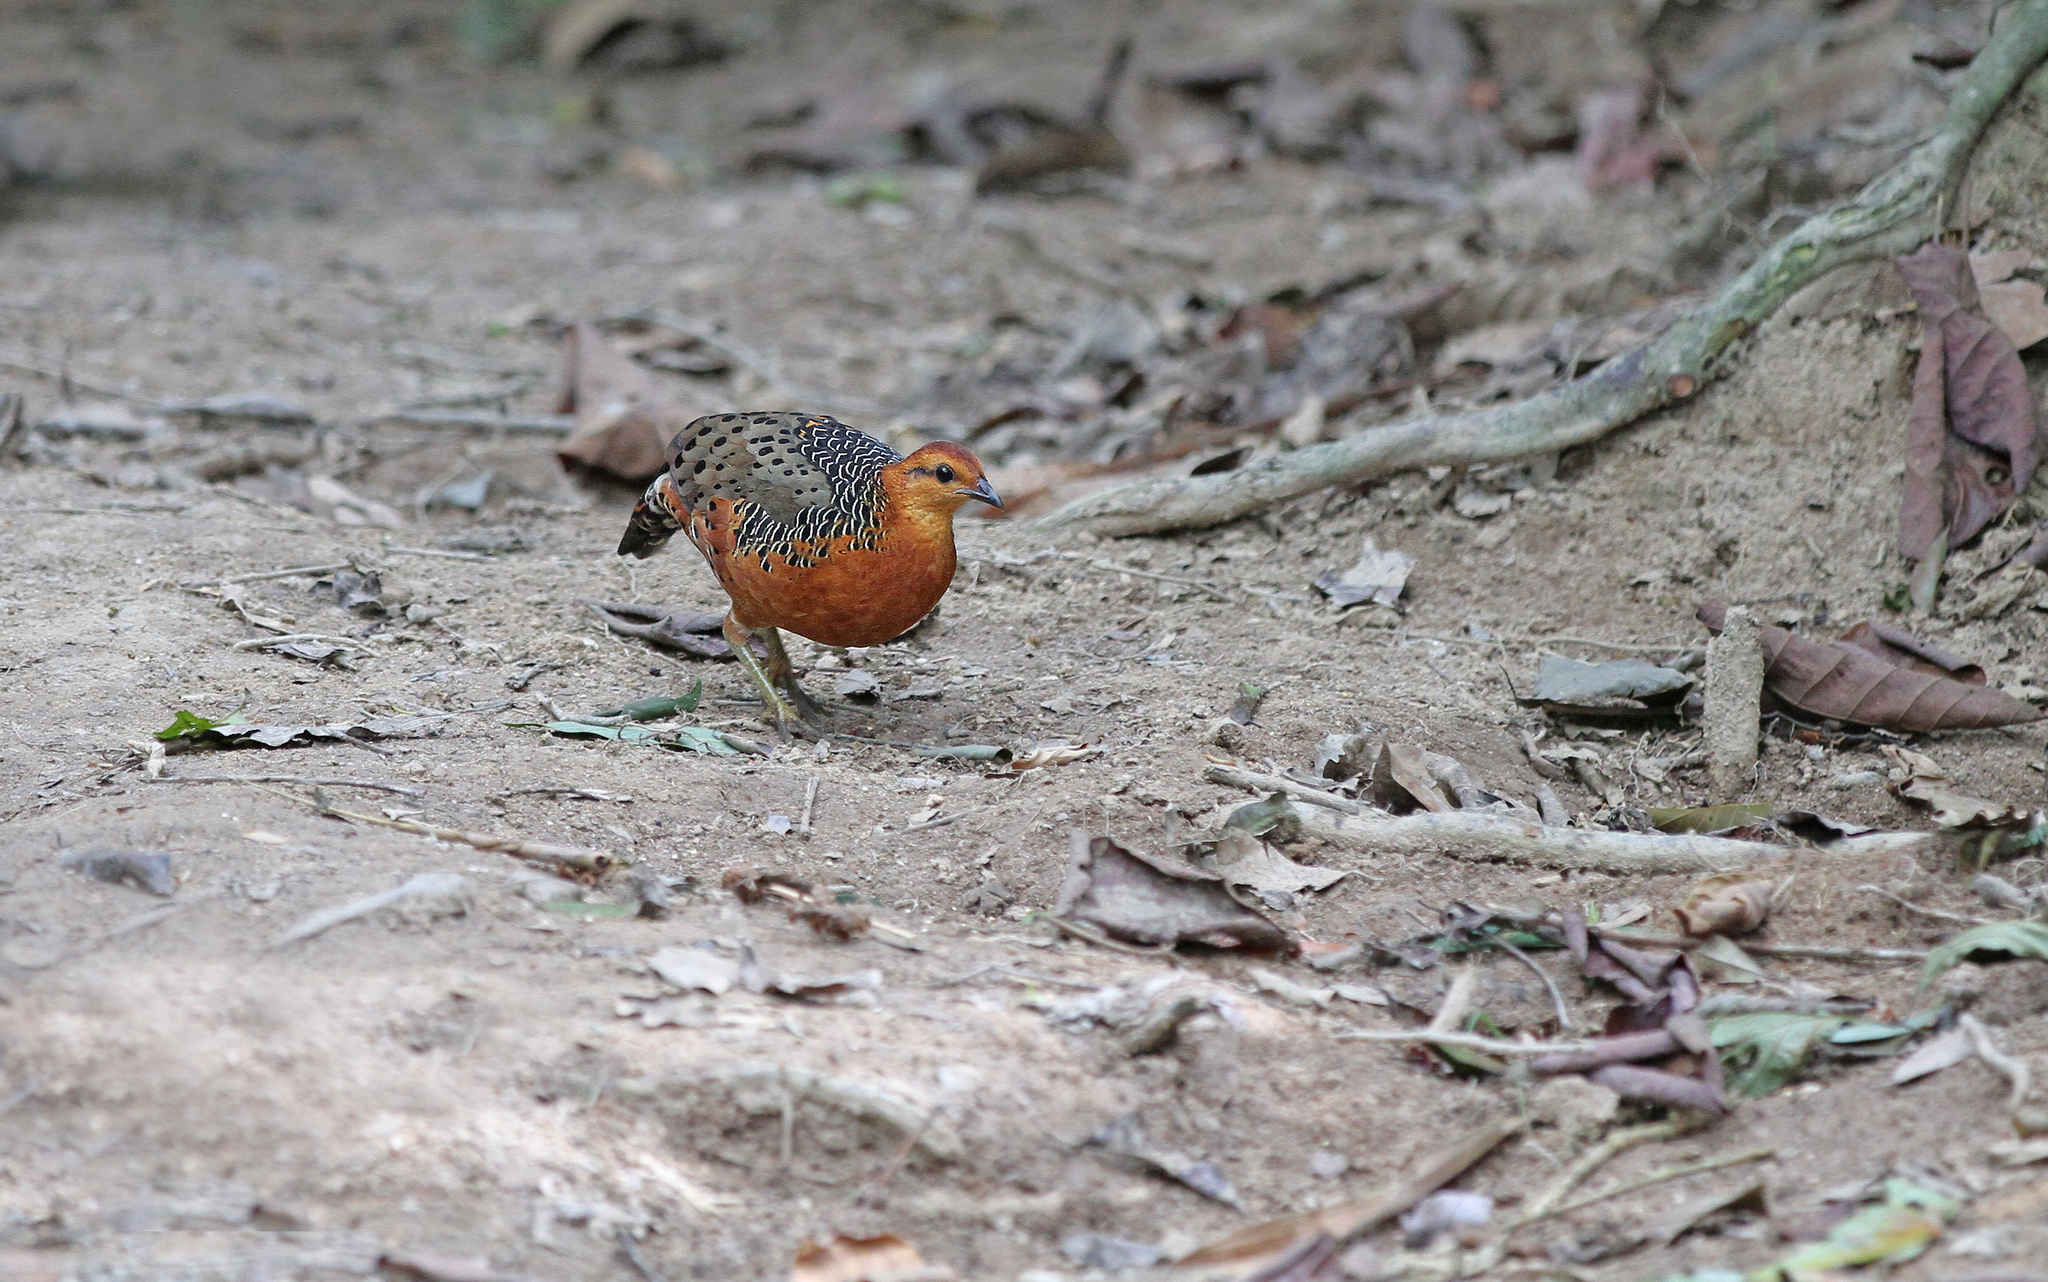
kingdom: Animalia
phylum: Chordata
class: Aves
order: Galliformes
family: Phasianidae
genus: Caloperdix
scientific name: Caloperdix oculeus
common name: Ferruginous partridge
